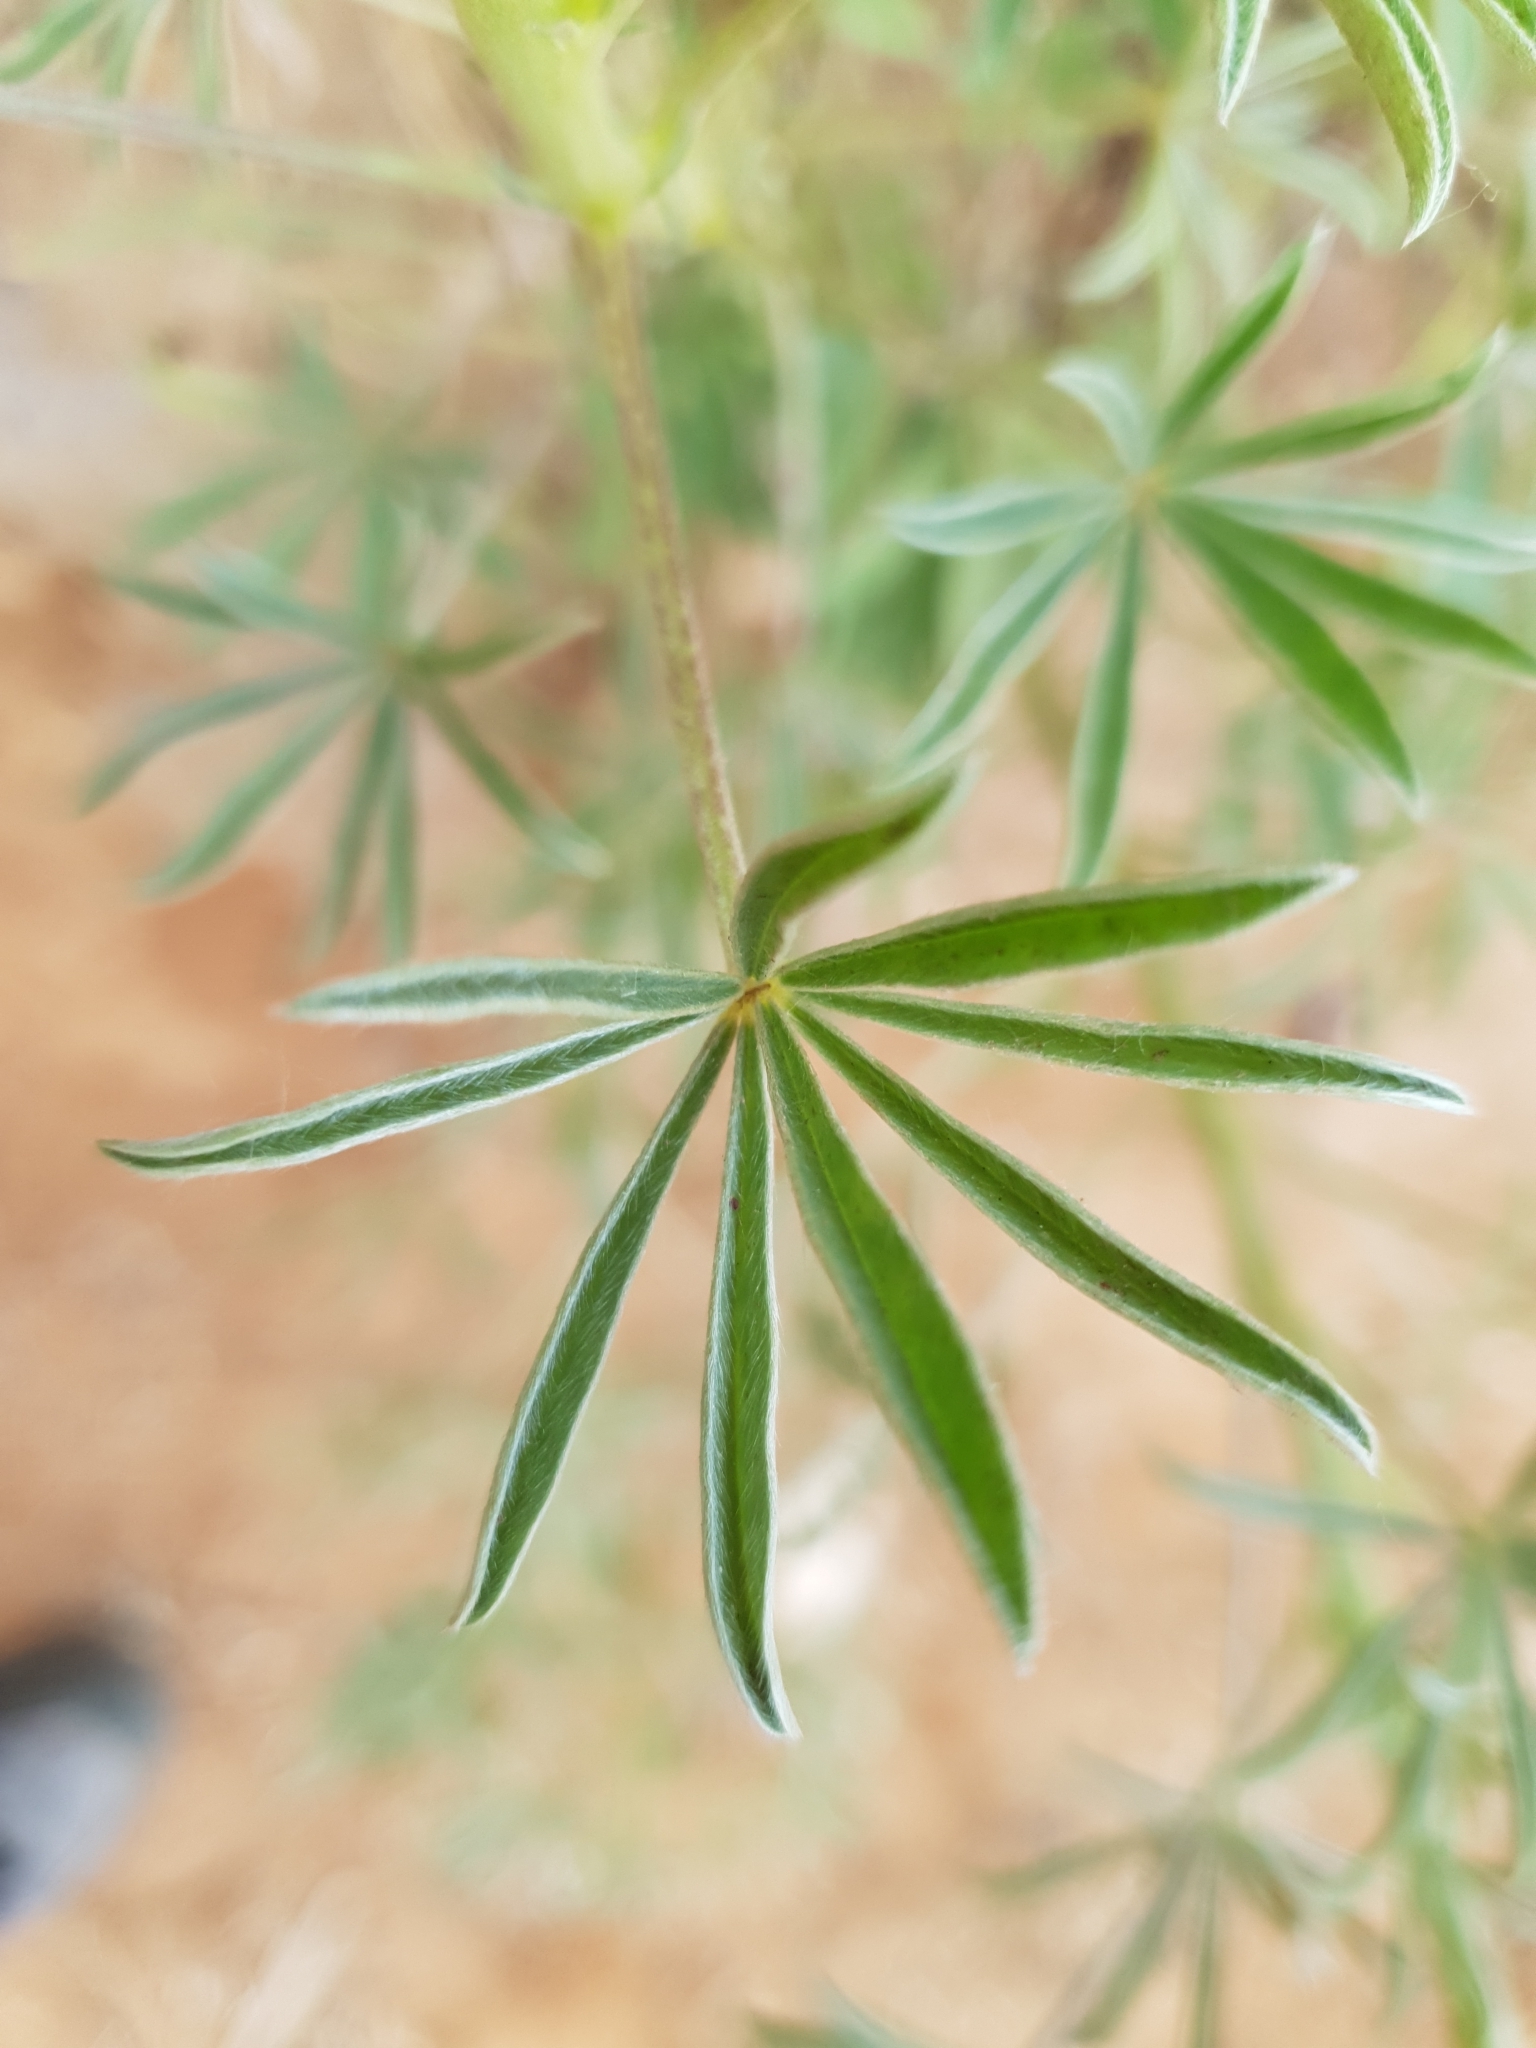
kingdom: Plantae
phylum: Tracheophyta
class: Magnoliopsida
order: Fabales
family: Fabaceae
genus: Lupinus
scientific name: Lupinus luteus
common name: European yellow lupine
